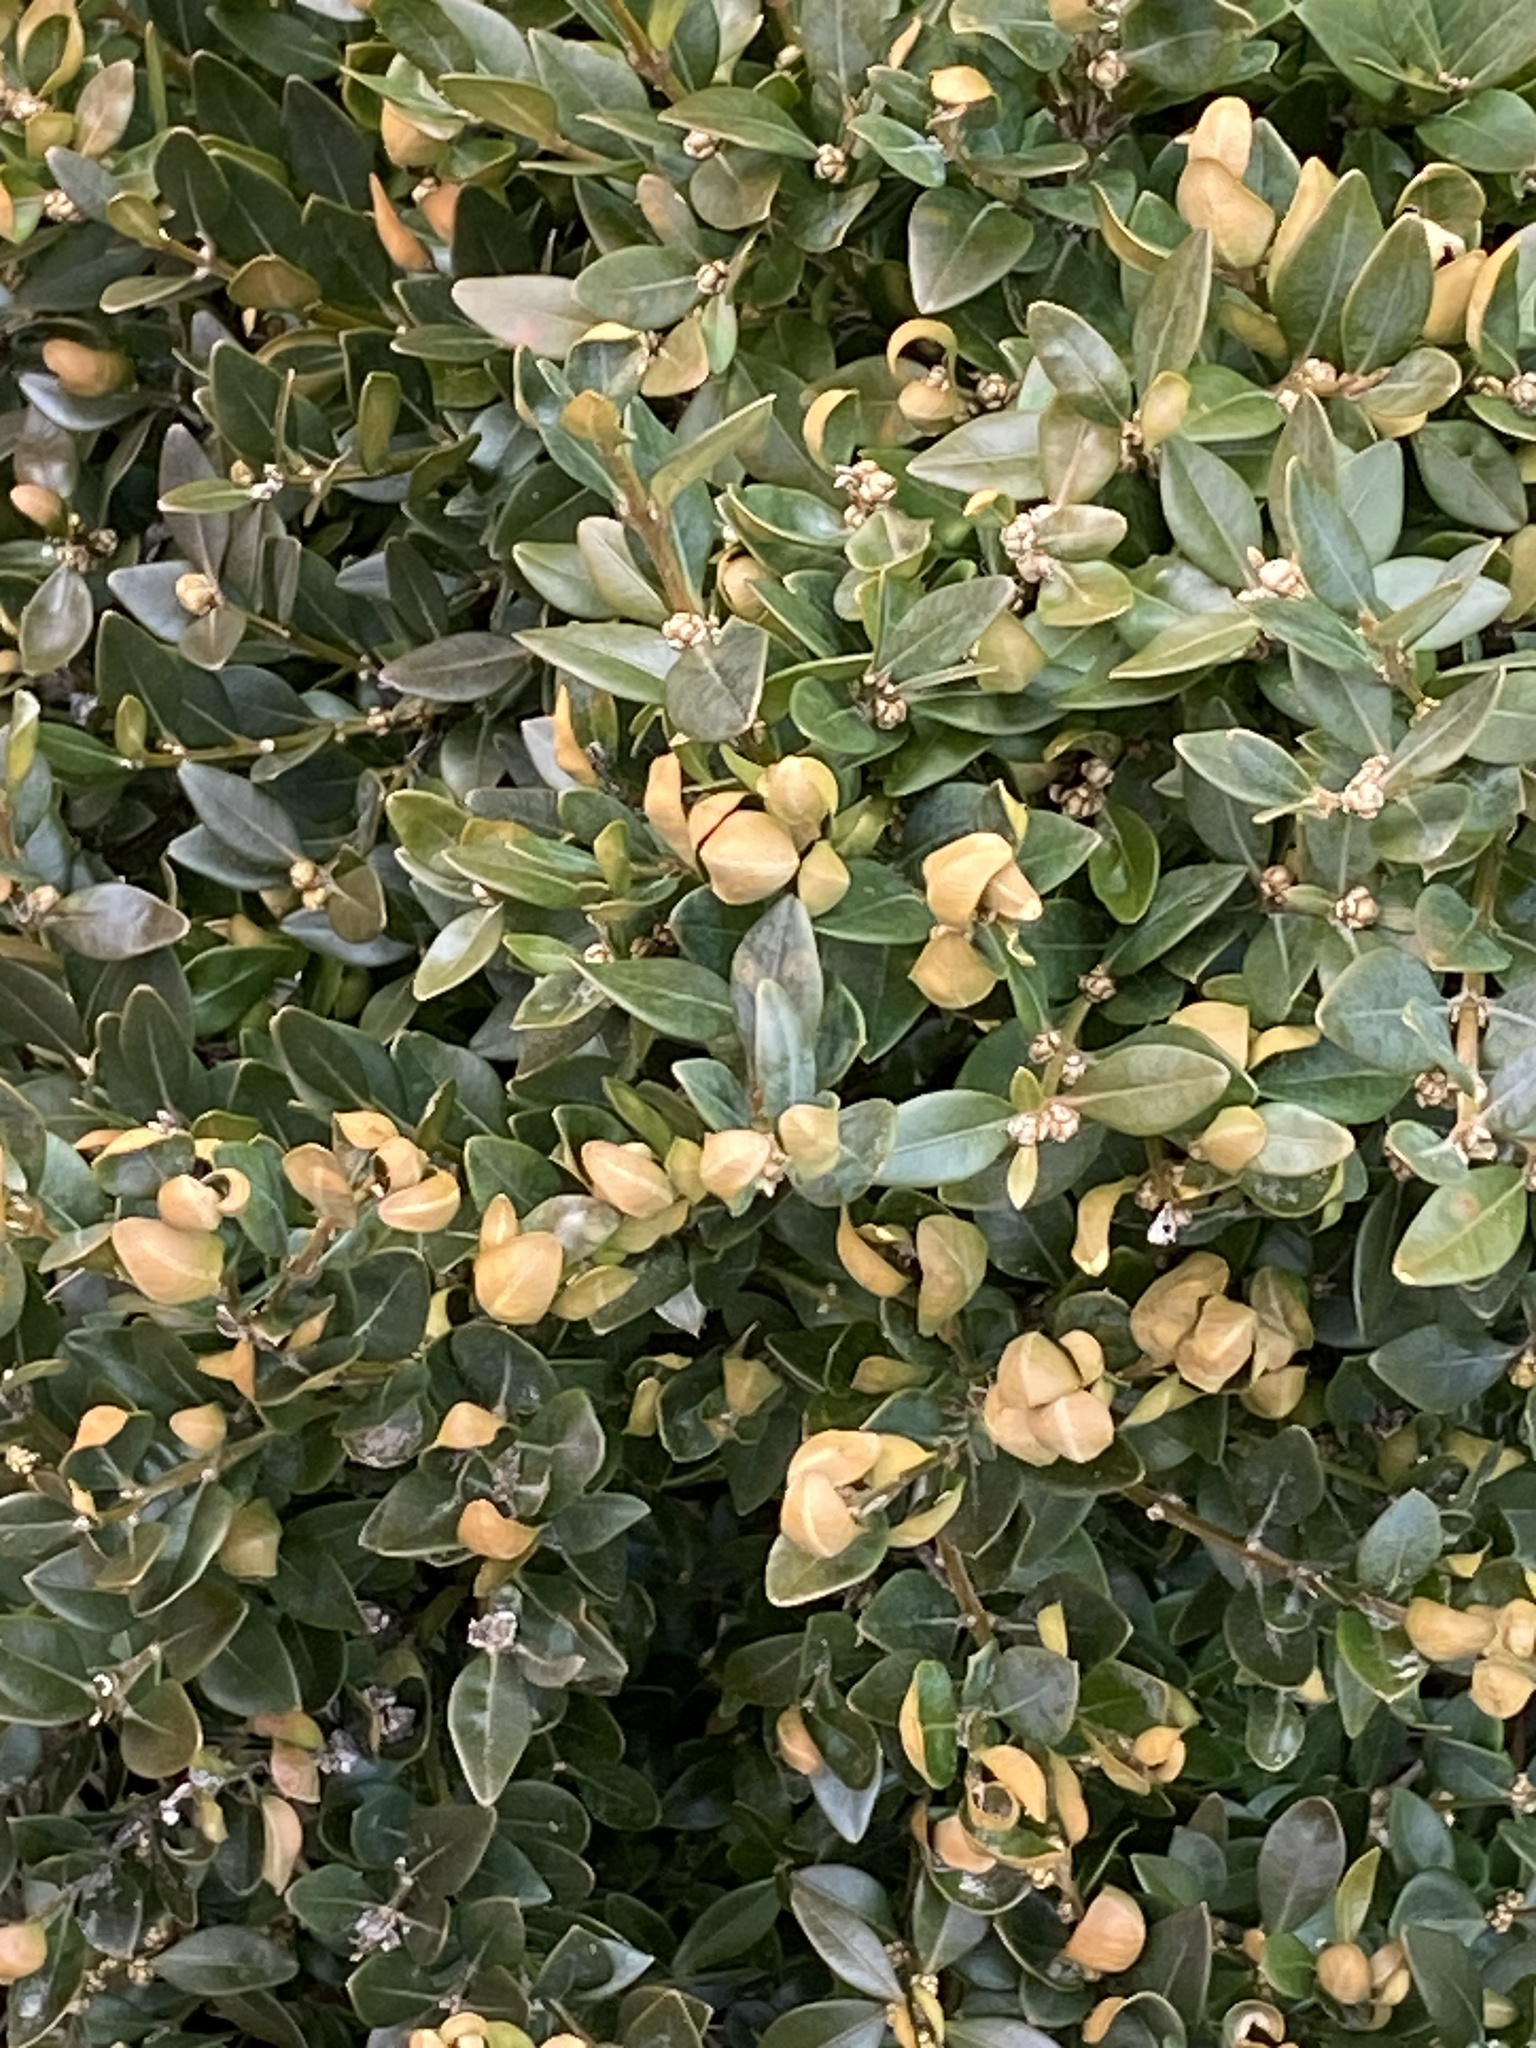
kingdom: Animalia
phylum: Arthropoda
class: Insecta
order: Hemiptera
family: Psyllidae
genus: Psylla
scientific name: Psylla buxi
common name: Boxwood psyllid
